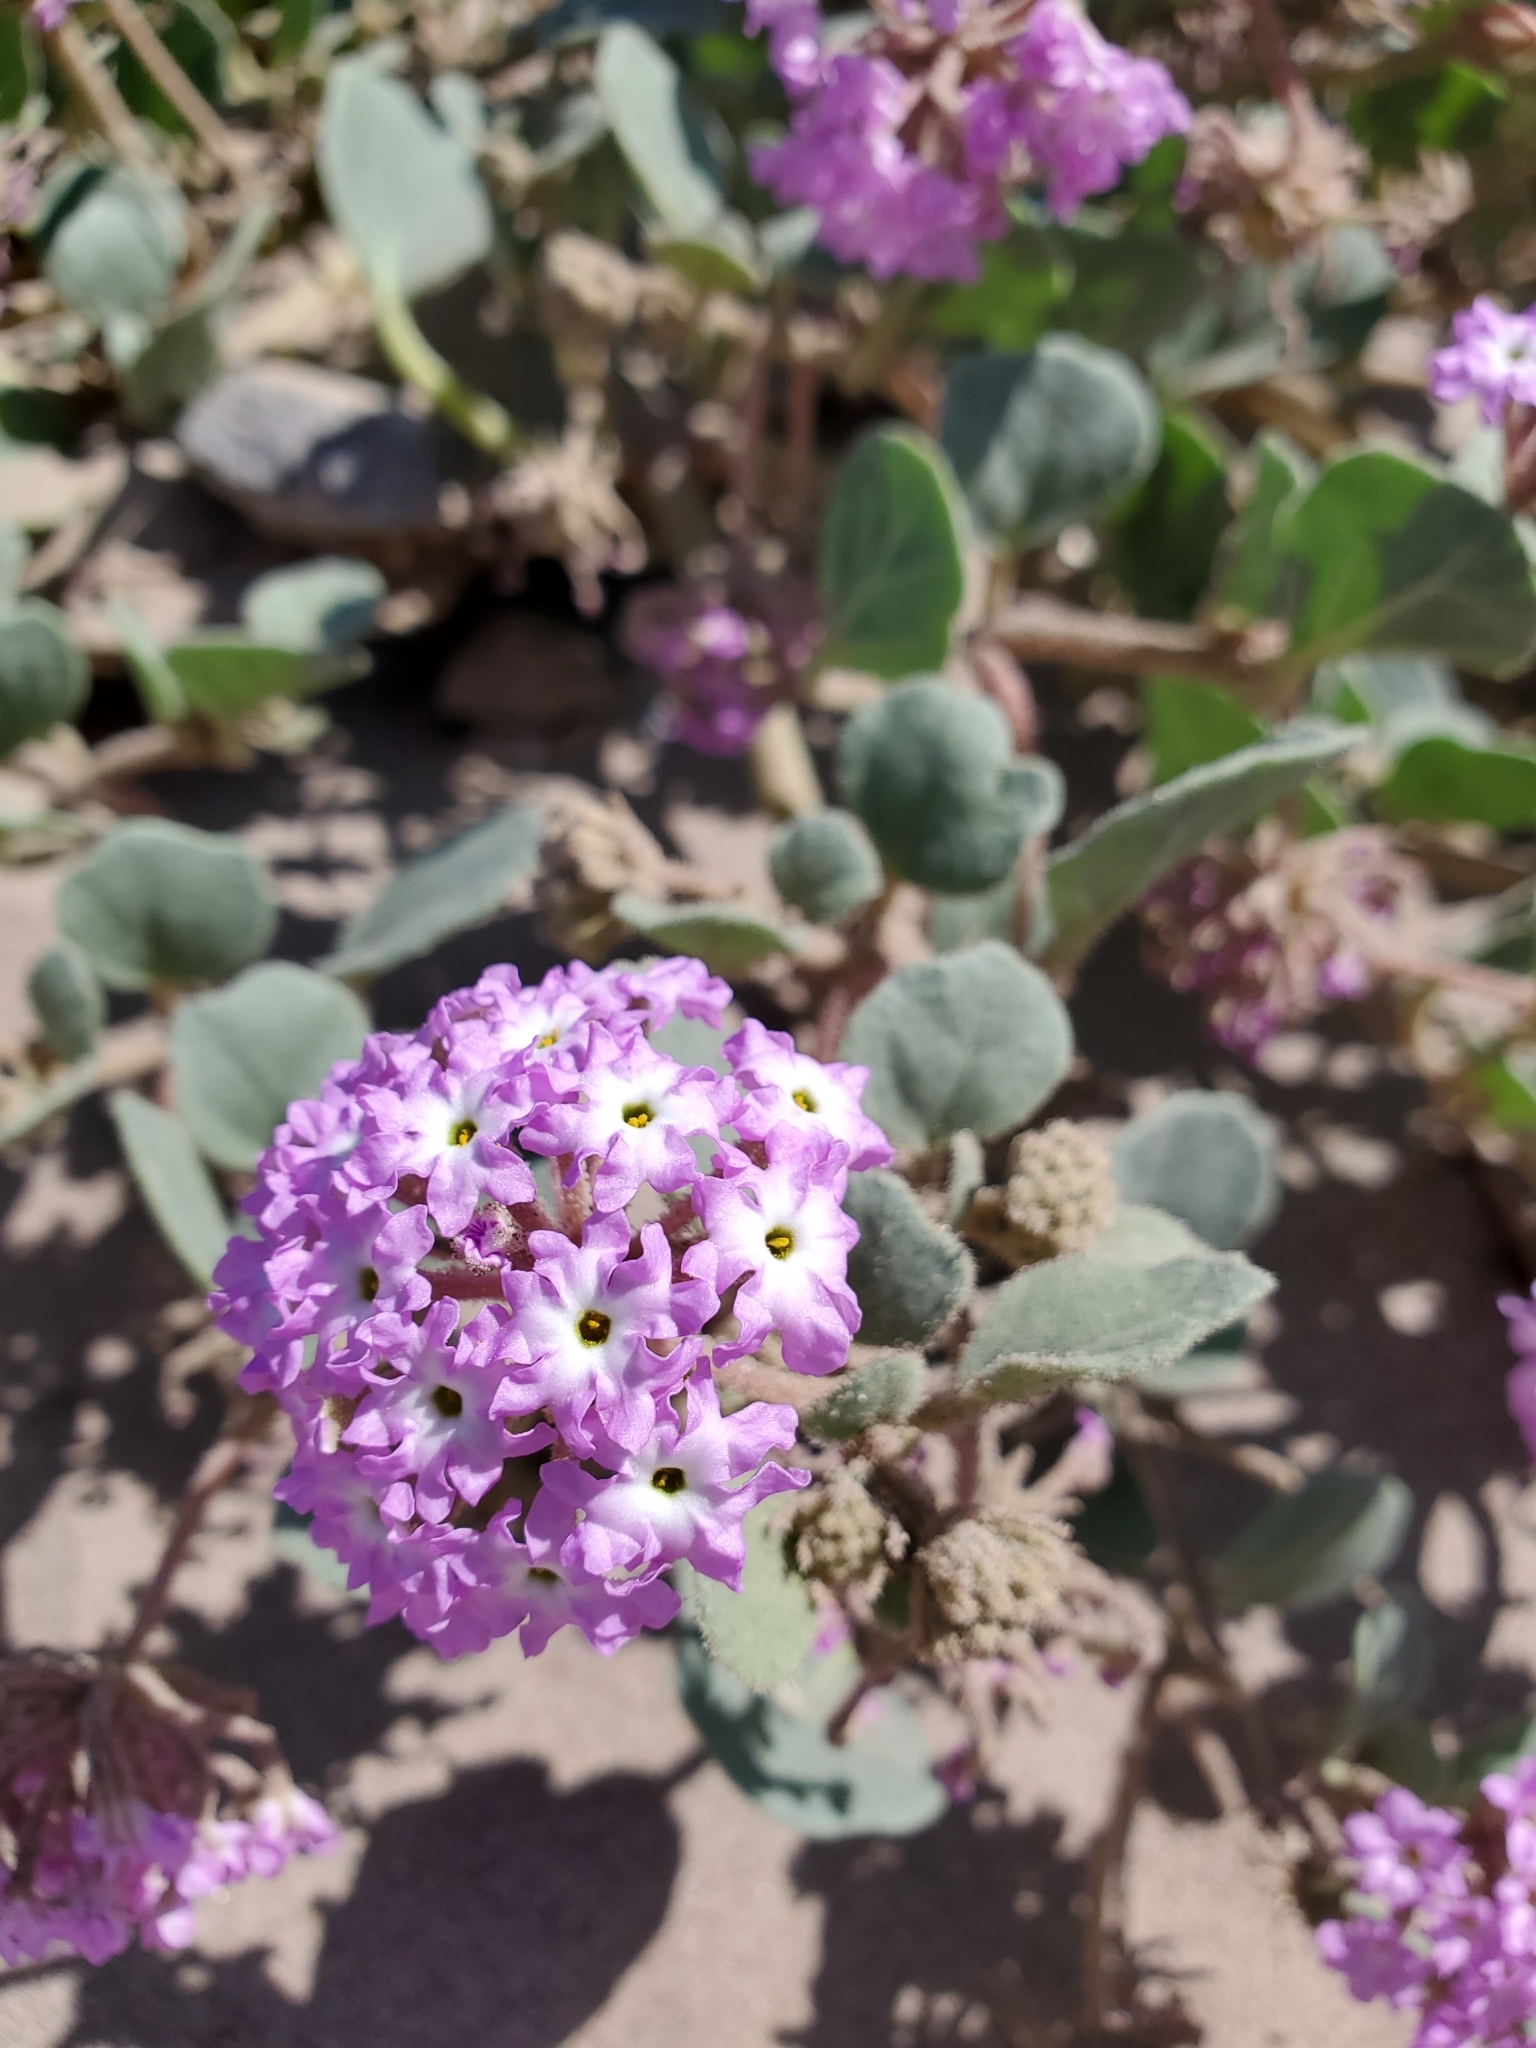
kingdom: Plantae
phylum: Tracheophyta
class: Magnoliopsida
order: Caryophyllales
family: Nyctaginaceae
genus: Abronia
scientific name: Abronia villosa
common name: Desert sand-verbena
